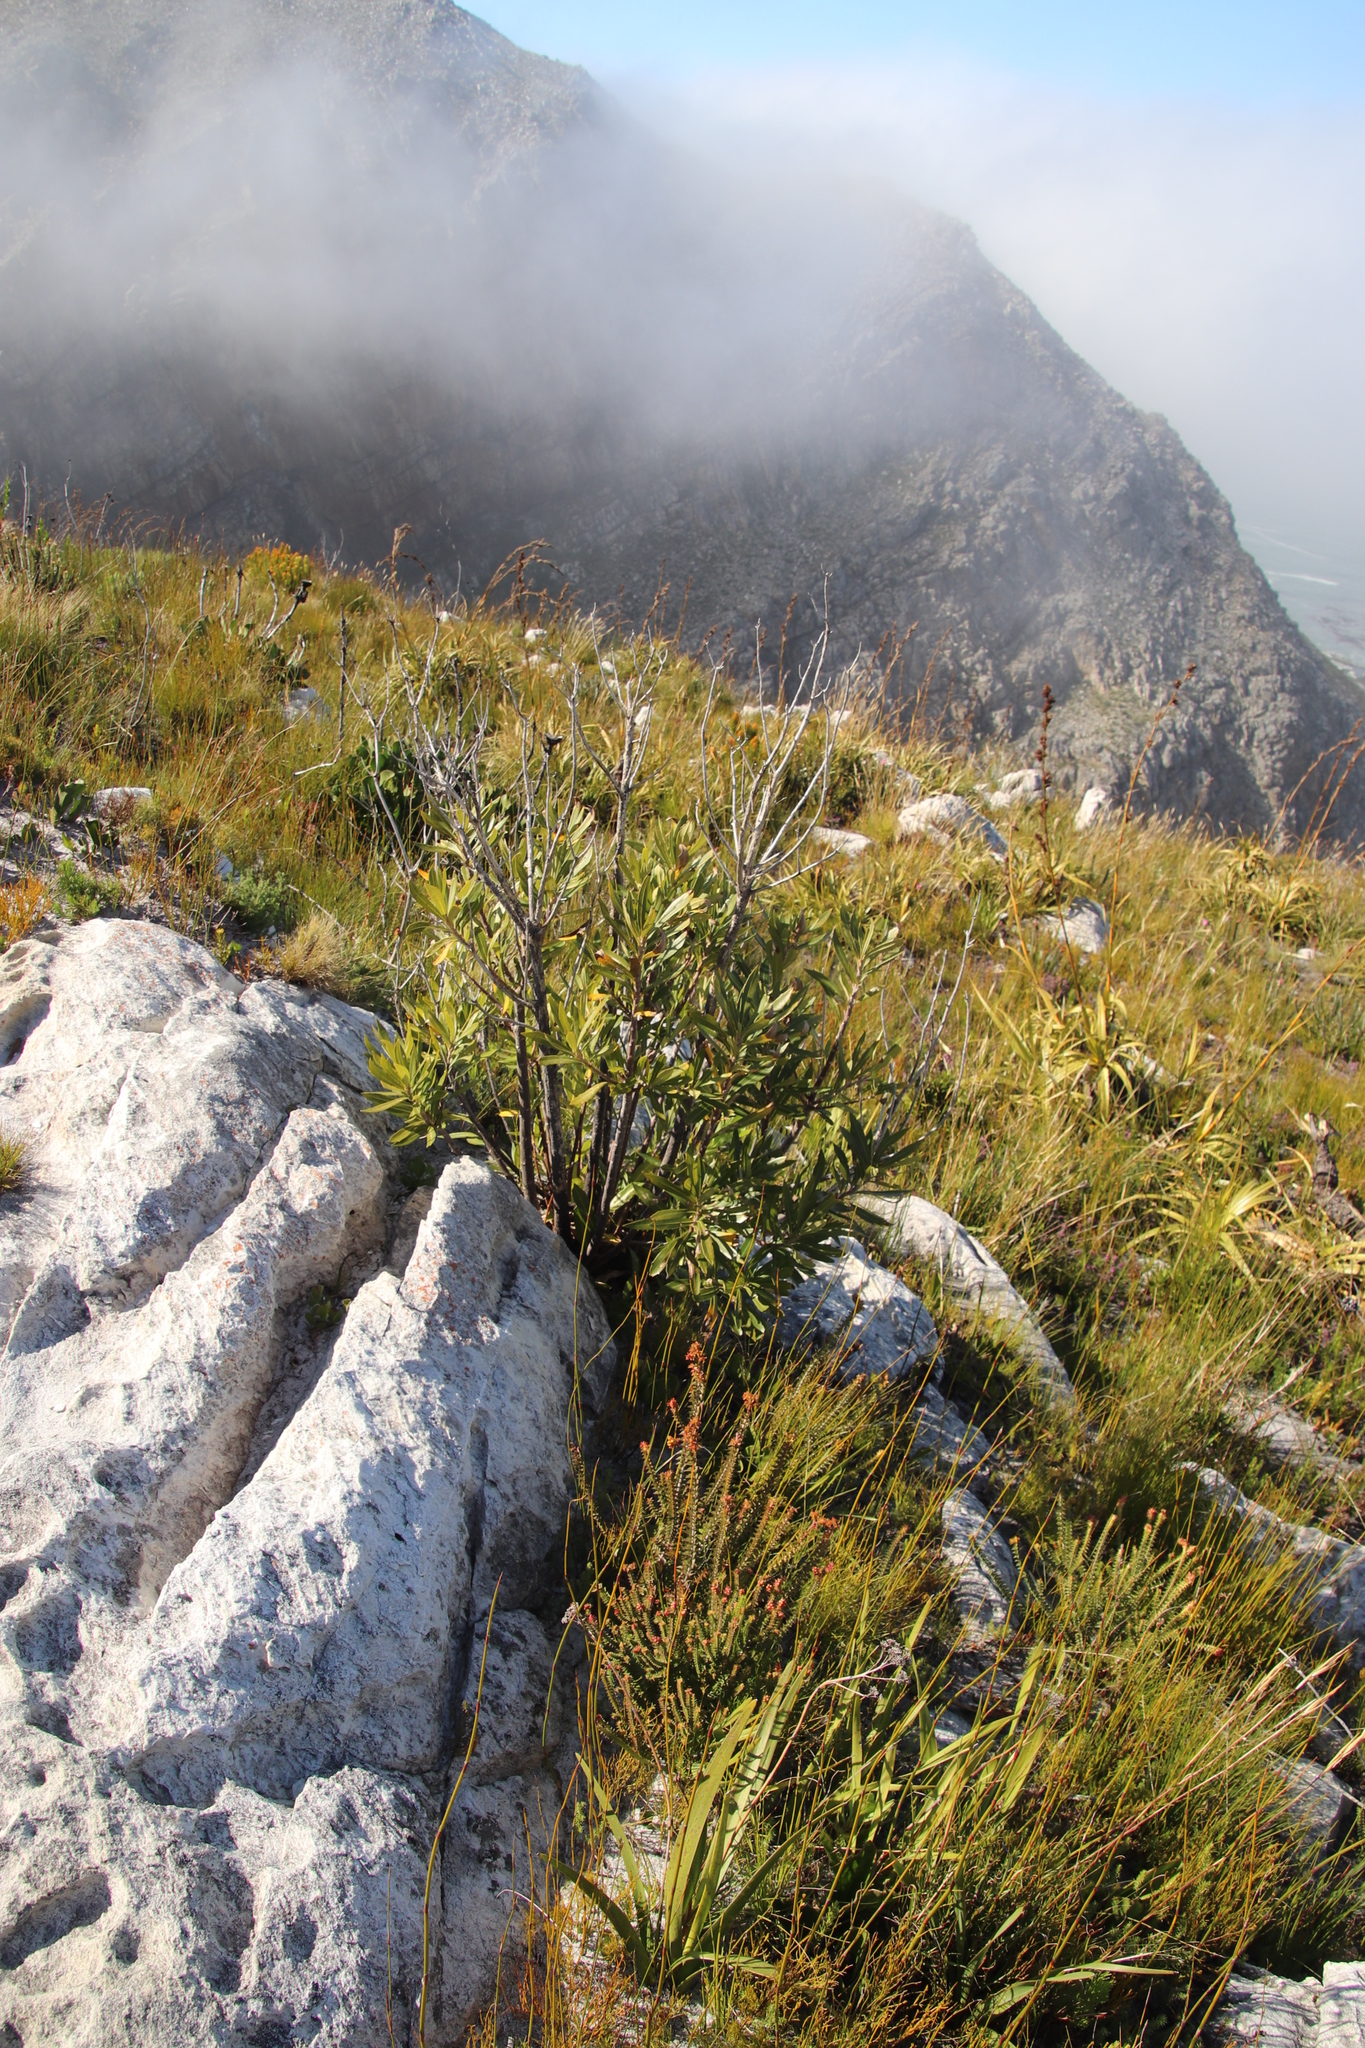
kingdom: Plantae
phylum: Tracheophyta
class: Magnoliopsida
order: Asterales
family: Asteraceae
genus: Brachylaena
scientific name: Brachylaena neriifolia
